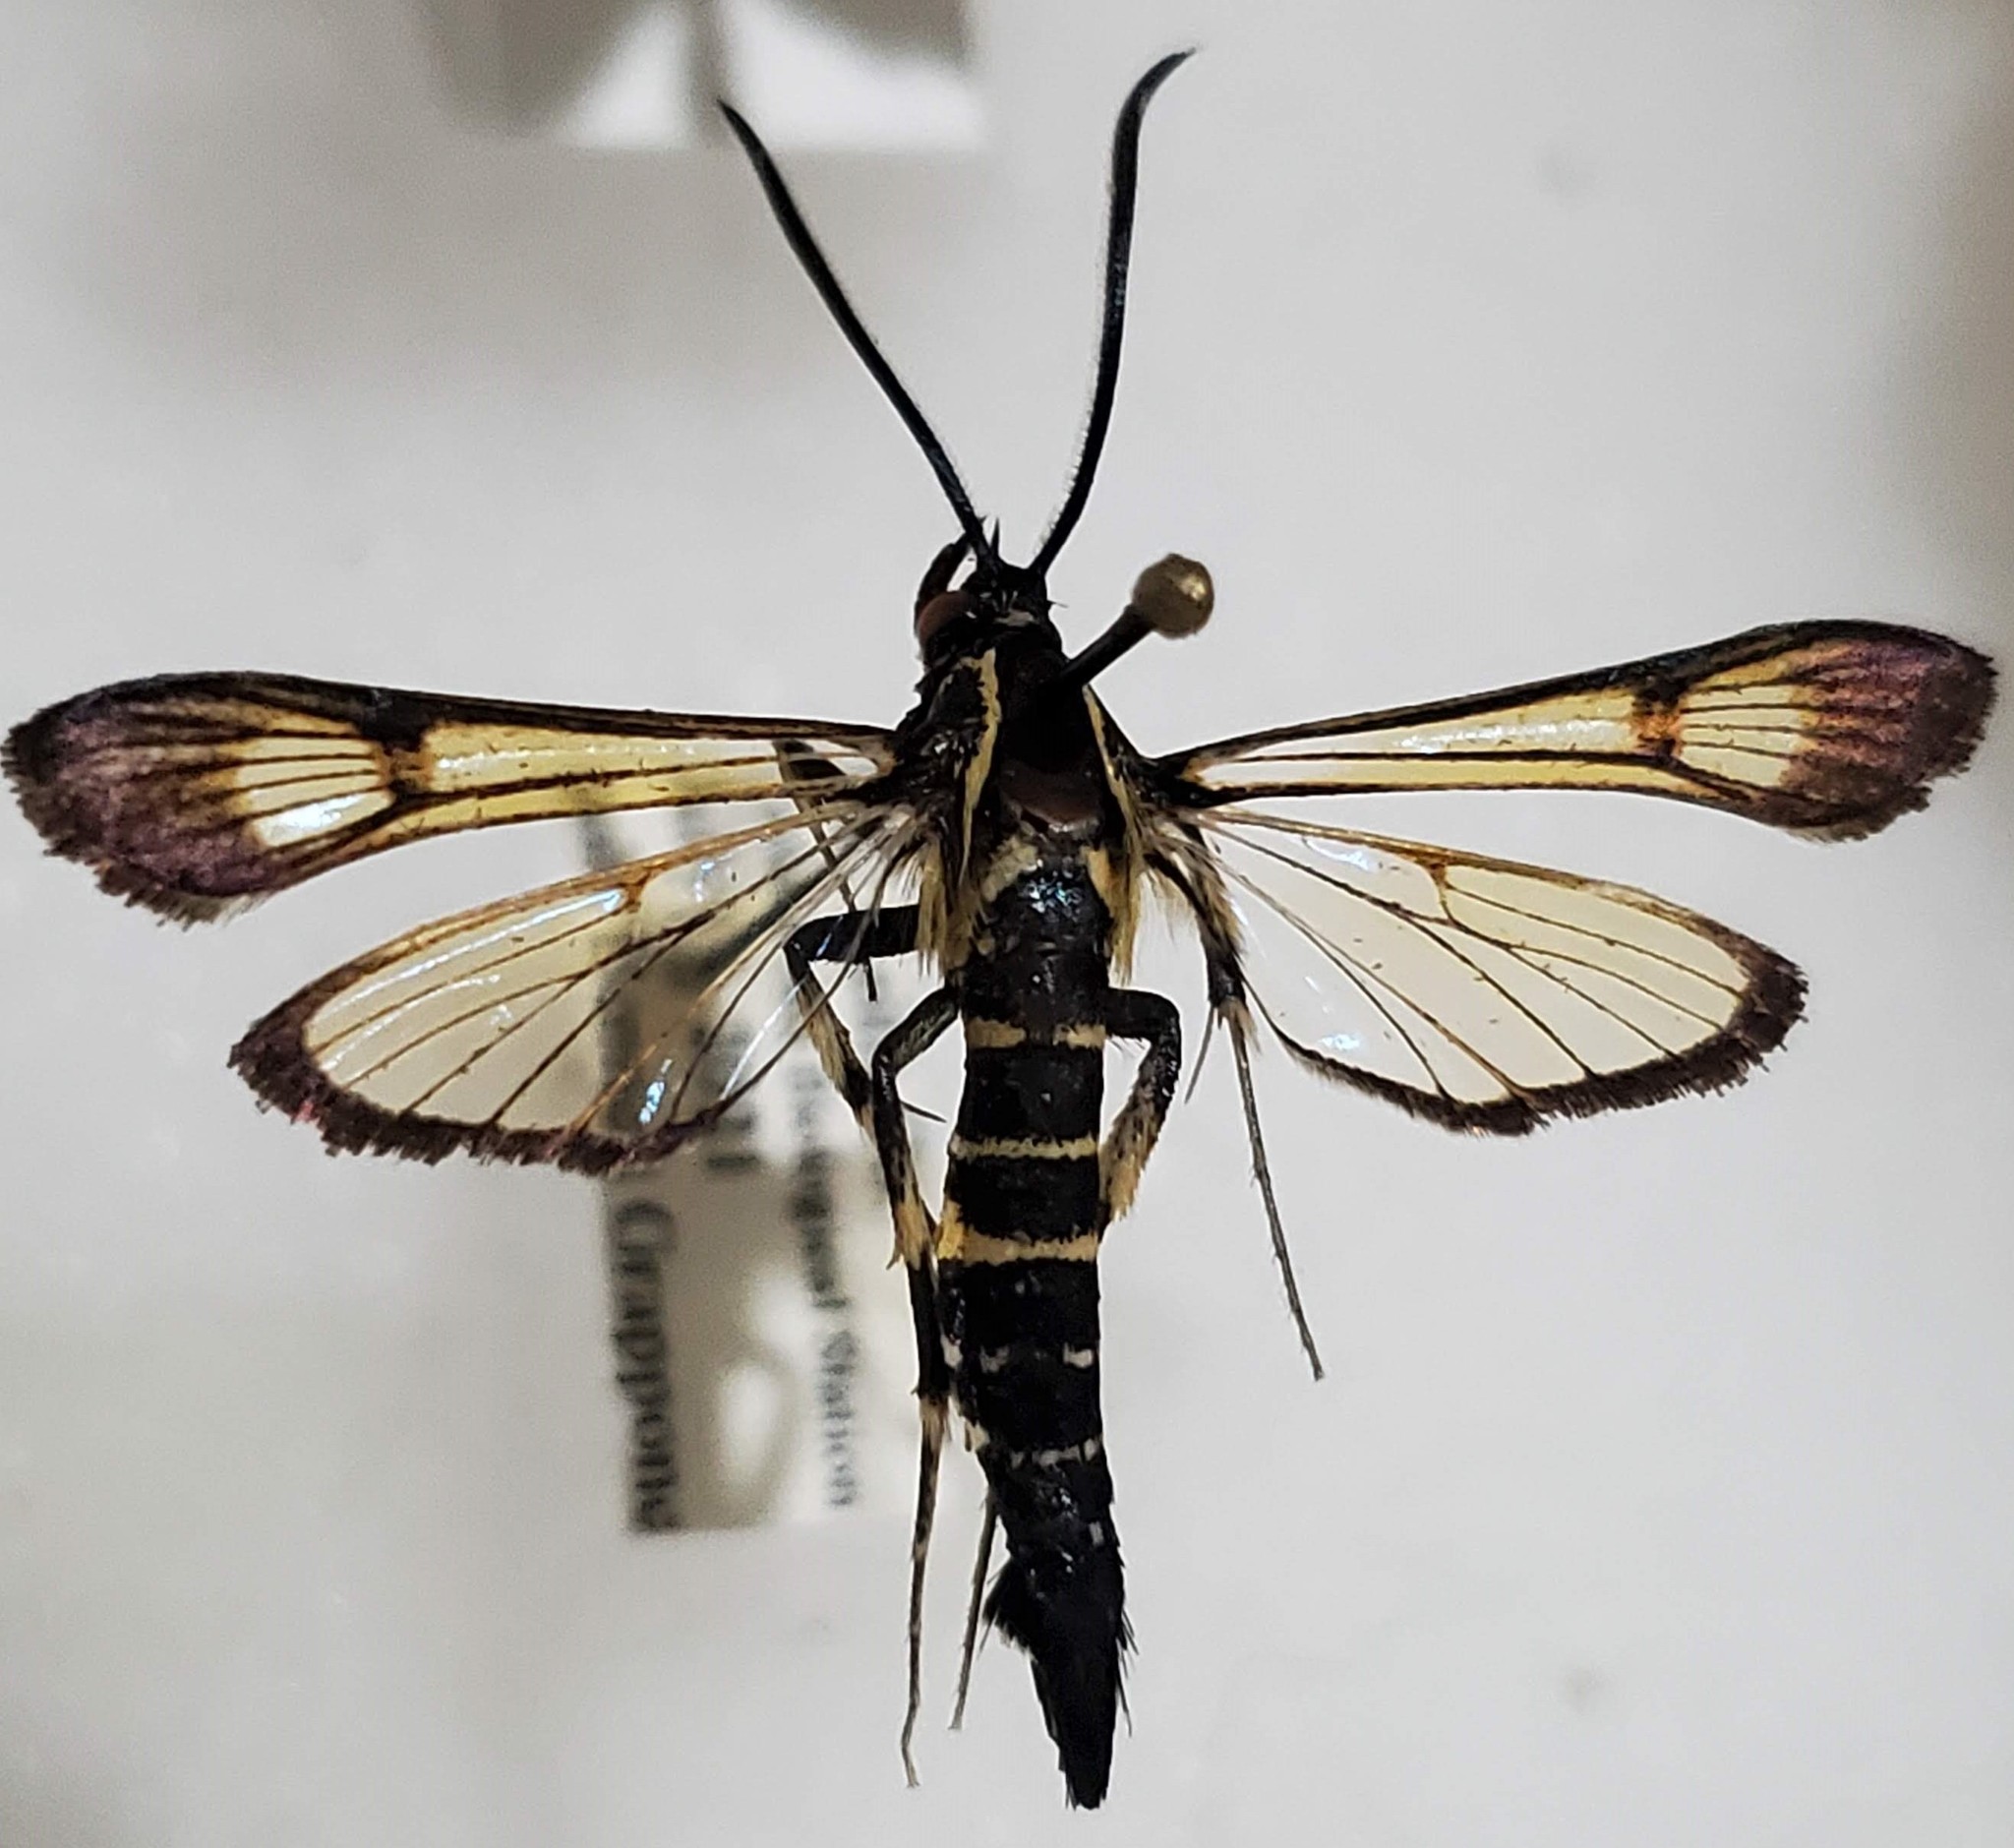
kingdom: Animalia
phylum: Arthropoda
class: Insecta
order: Lepidoptera
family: Sesiidae
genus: Synanthedon
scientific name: Synanthedon exitiosa
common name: Peachtree borer moth
